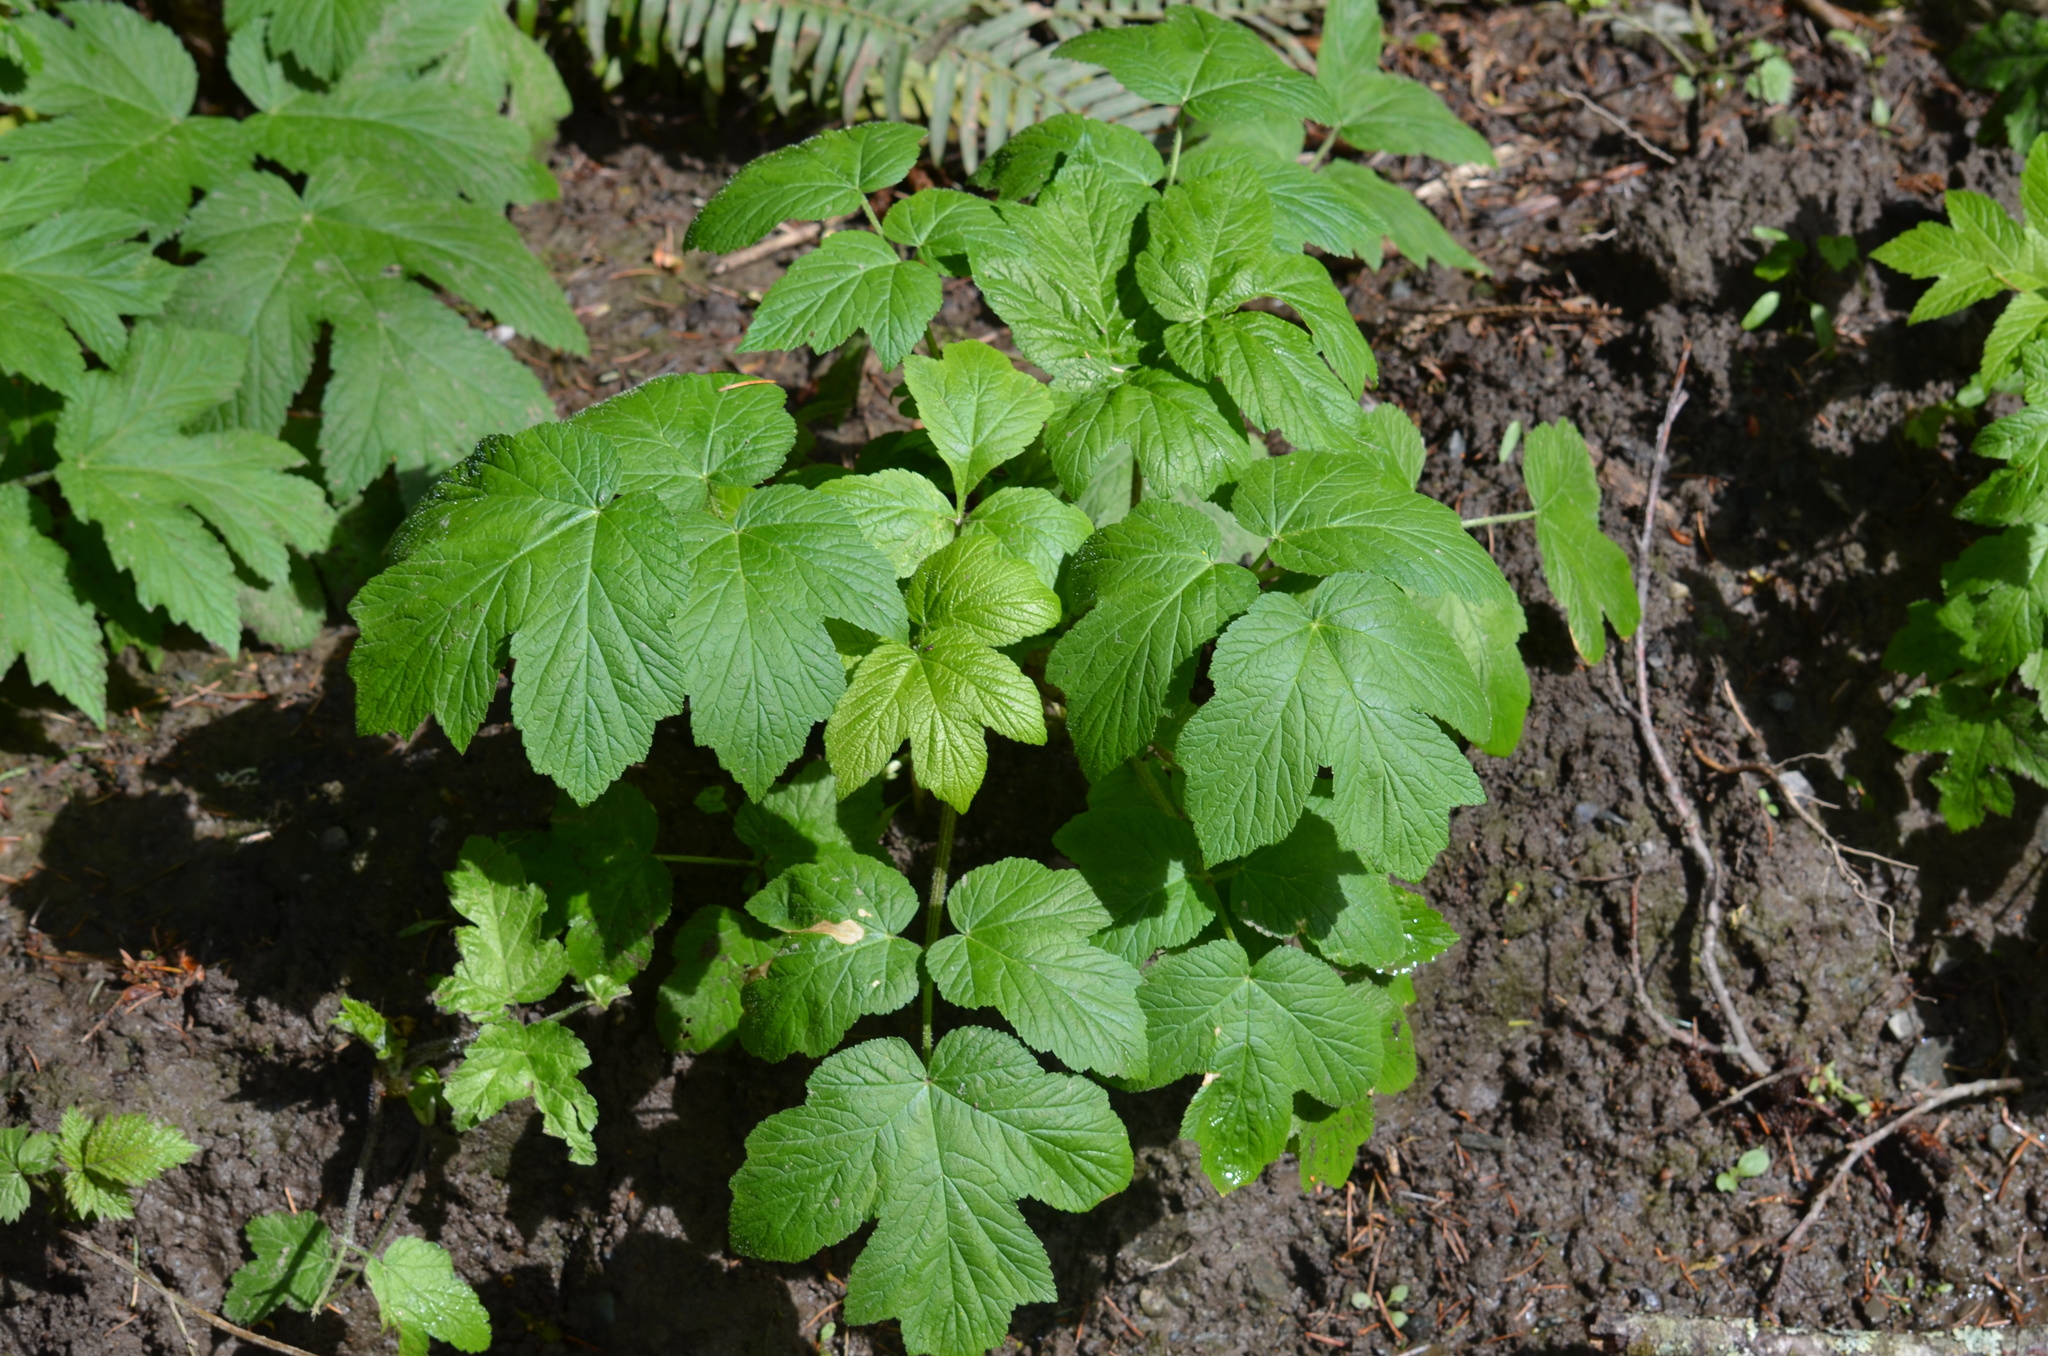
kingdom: Plantae
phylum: Tracheophyta
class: Magnoliopsida
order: Apiales
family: Apiaceae
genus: Heracleum
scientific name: Heracleum maximum
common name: American cow parsnip
